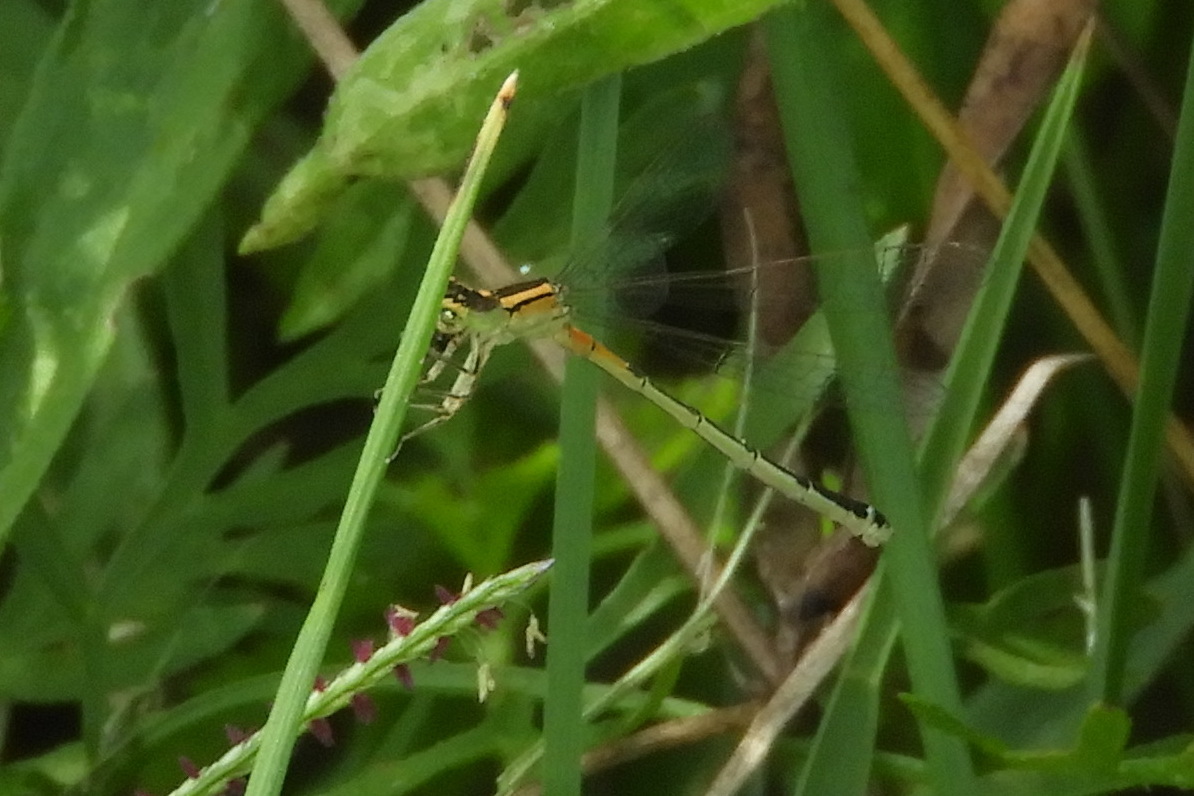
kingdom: Animalia
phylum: Arthropoda
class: Insecta
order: Odonata
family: Coenagrionidae
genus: Ischnura
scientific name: Ischnura verticalis
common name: Eastern forktail
